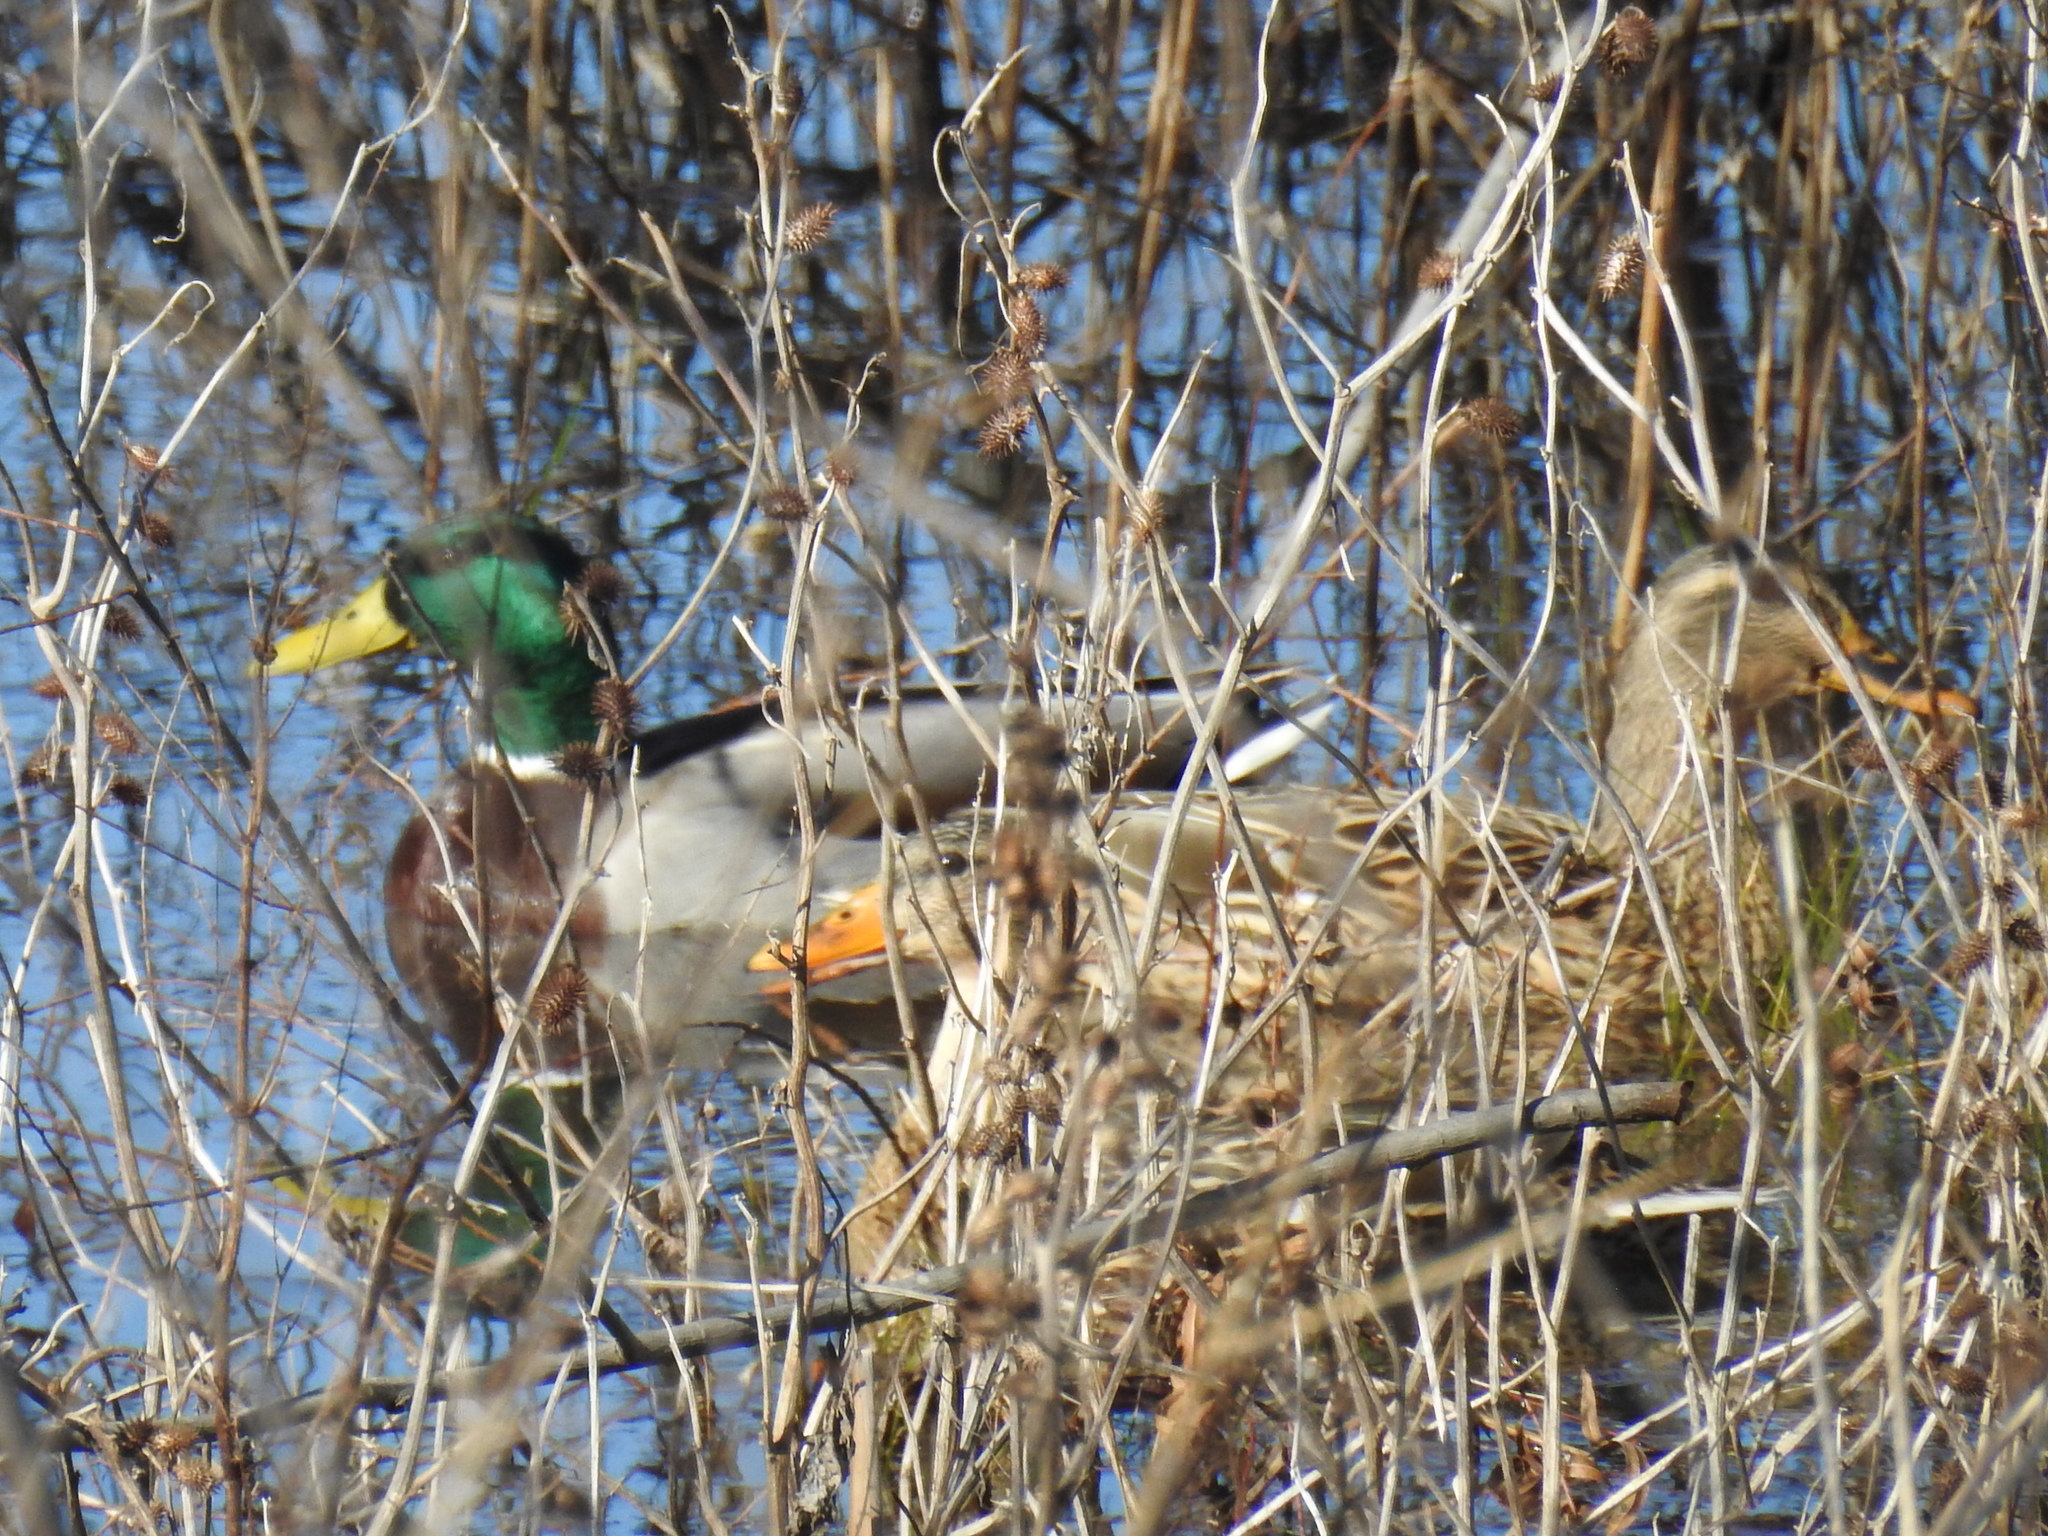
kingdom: Animalia
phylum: Chordata
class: Aves
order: Anseriformes
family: Anatidae
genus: Anas
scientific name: Anas platyrhynchos
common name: Mallard
